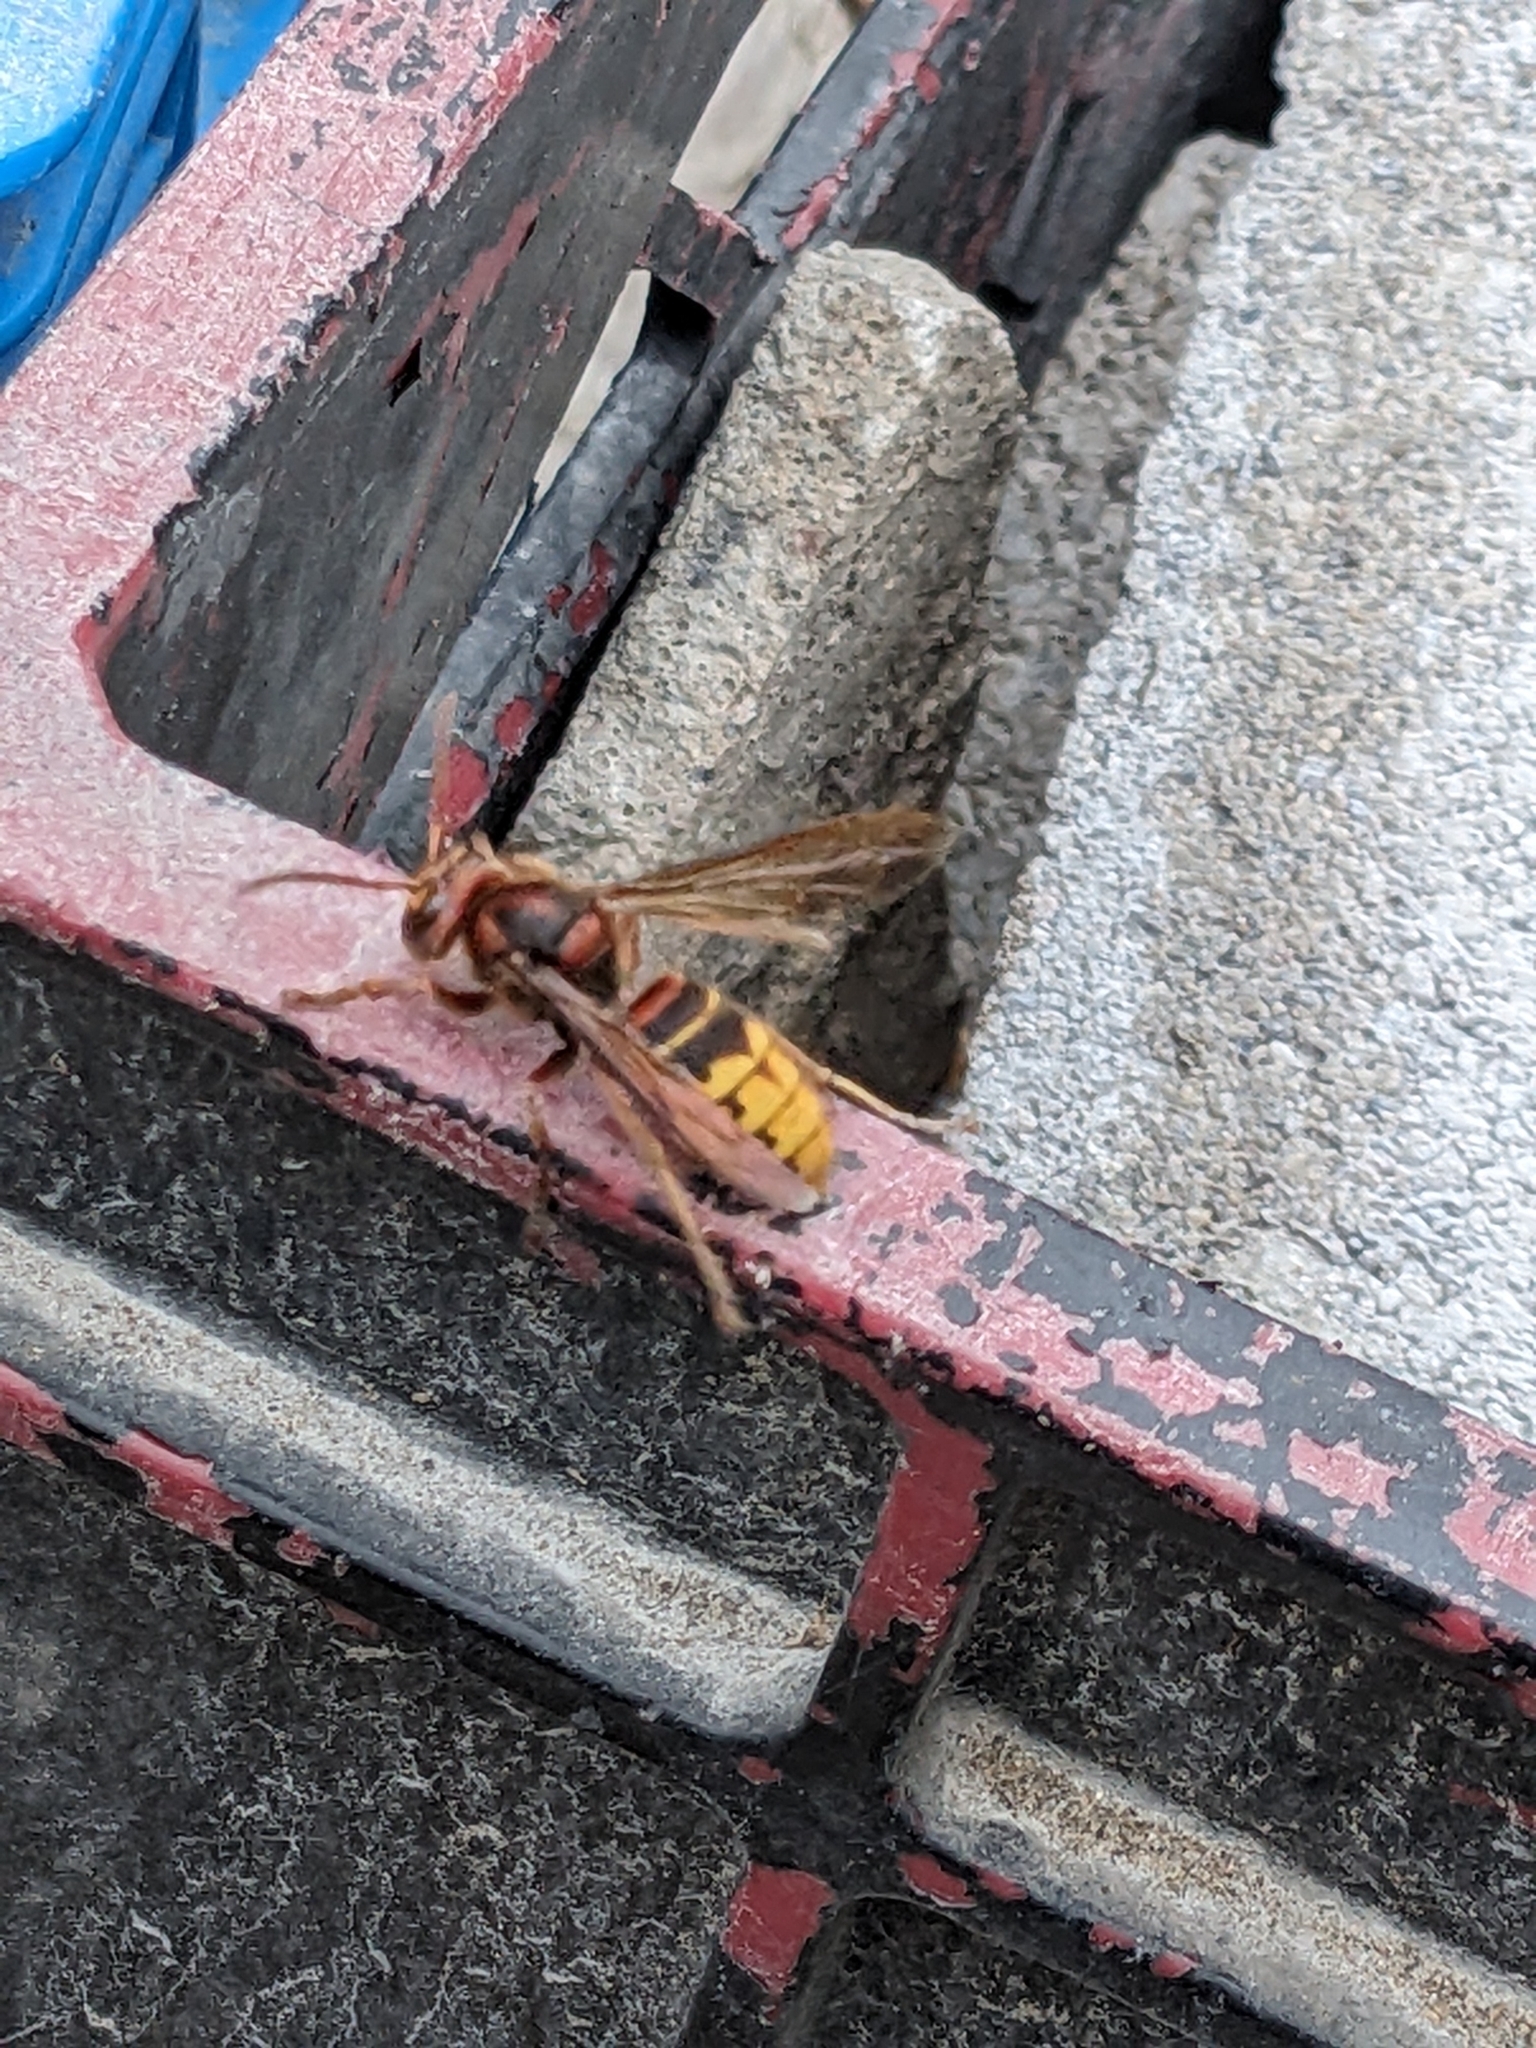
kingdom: Animalia
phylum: Arthropoda
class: Insecta
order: Hymenoptera
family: Vespidae
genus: Vespa
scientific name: Vespa crabro
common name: Hornet
